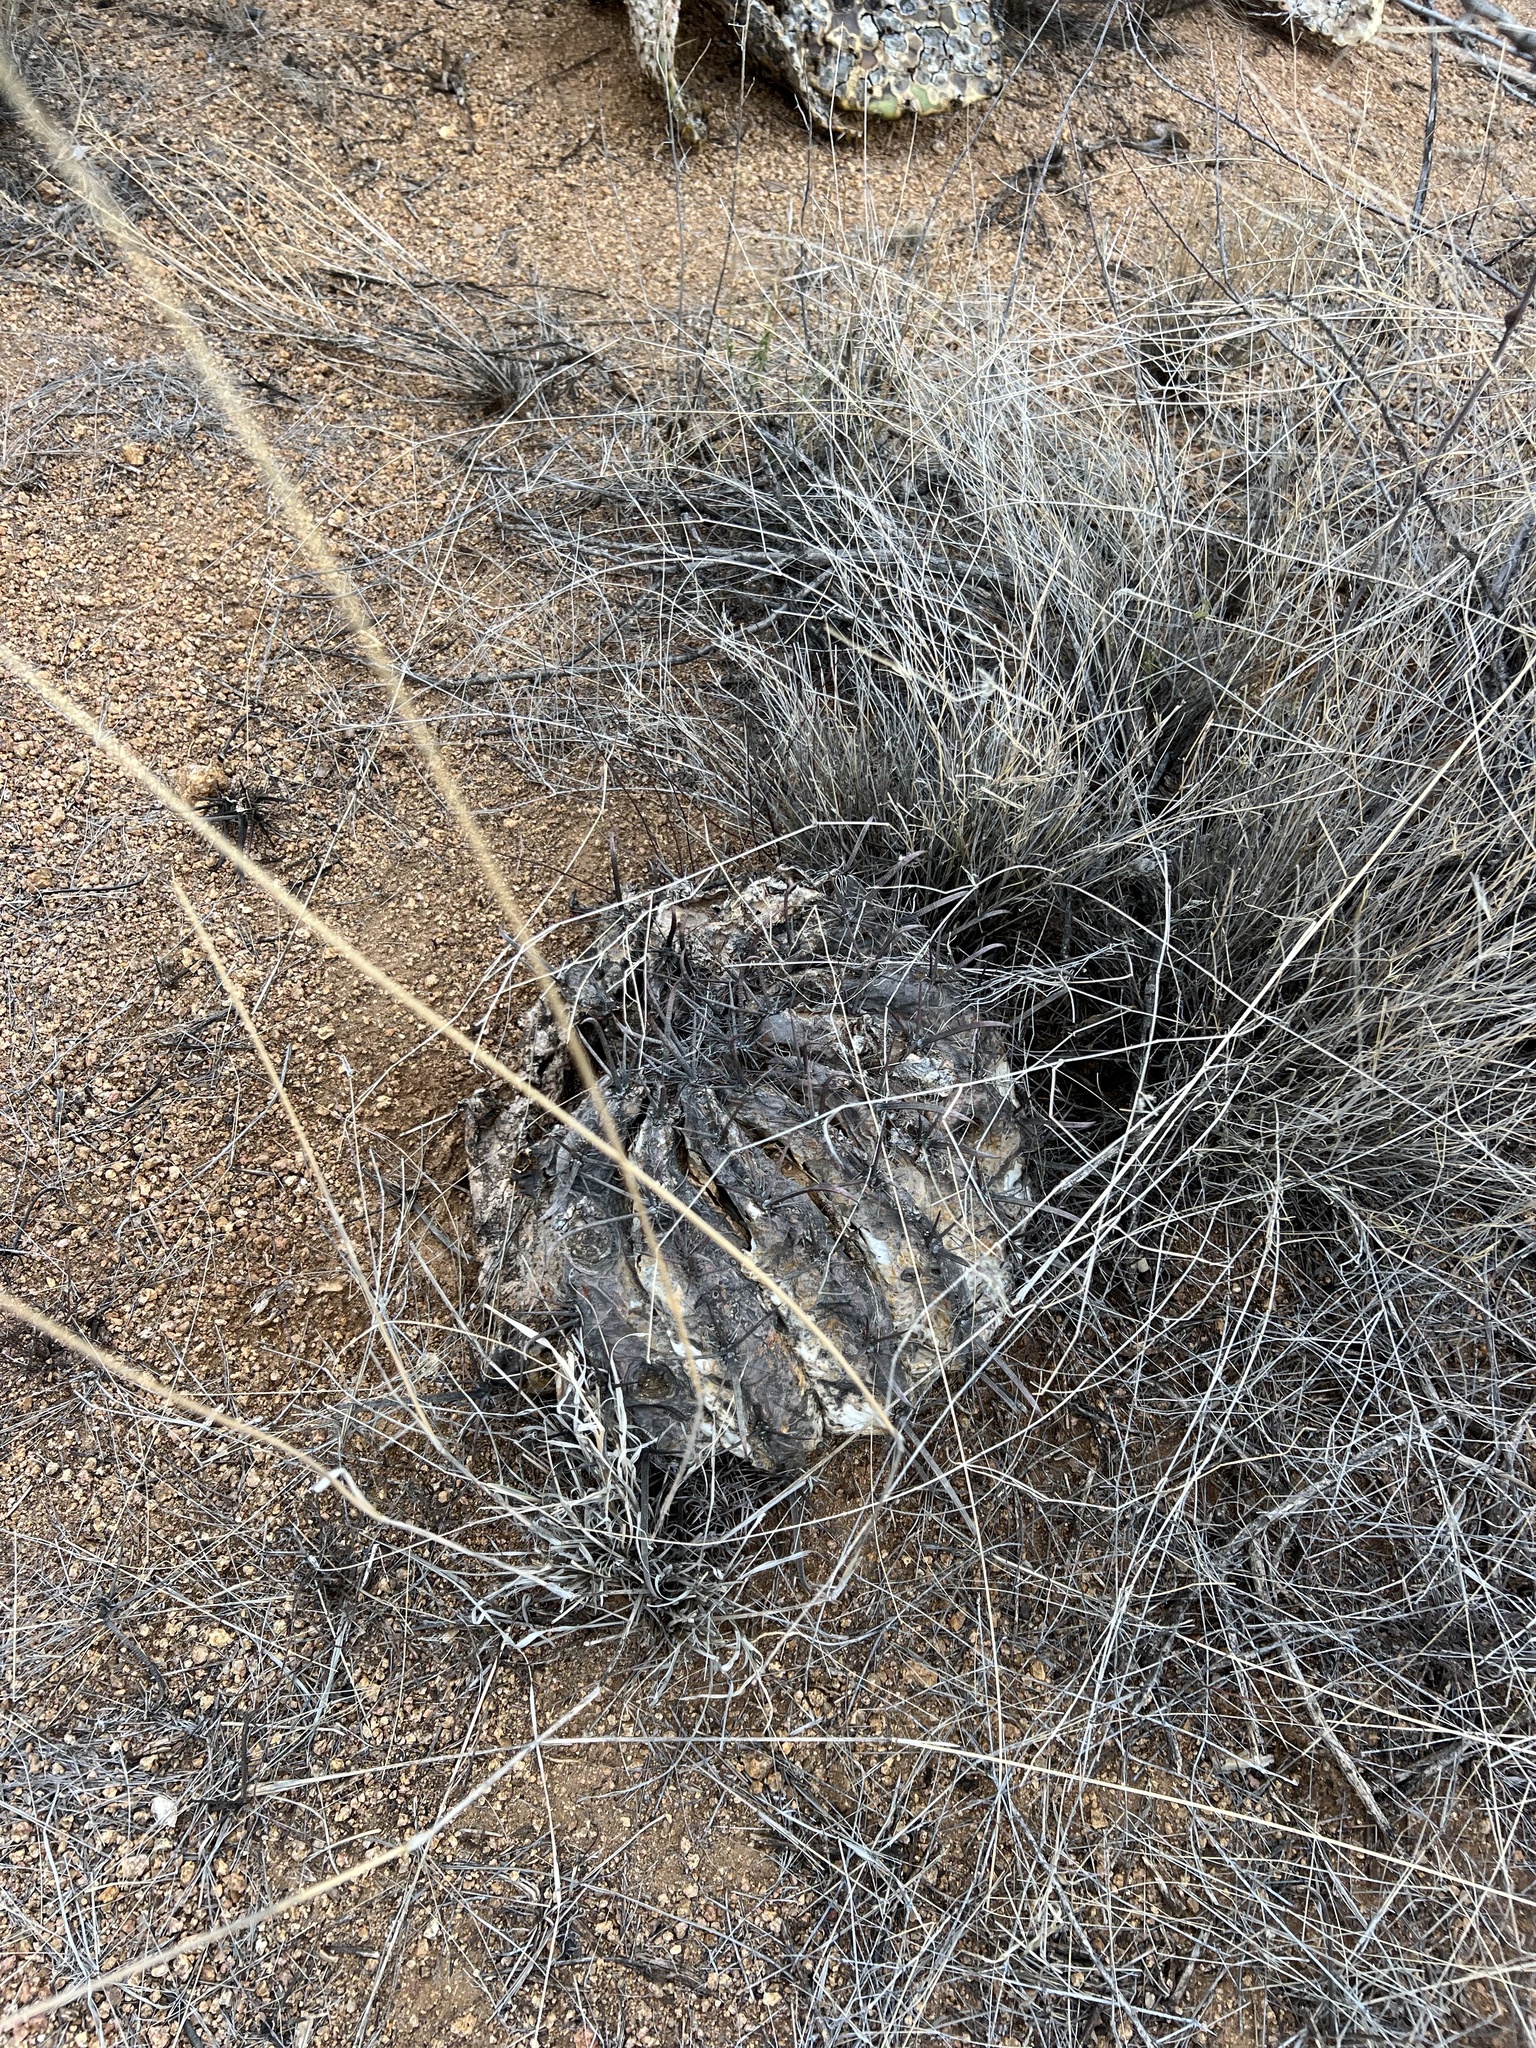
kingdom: Plantae
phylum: Tracheophyta
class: Magnoliopsida
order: Caryophyllales
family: Cactaceae
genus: Ferocactus
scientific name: Ferocactus wislizeni
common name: Candy barrel cactus
